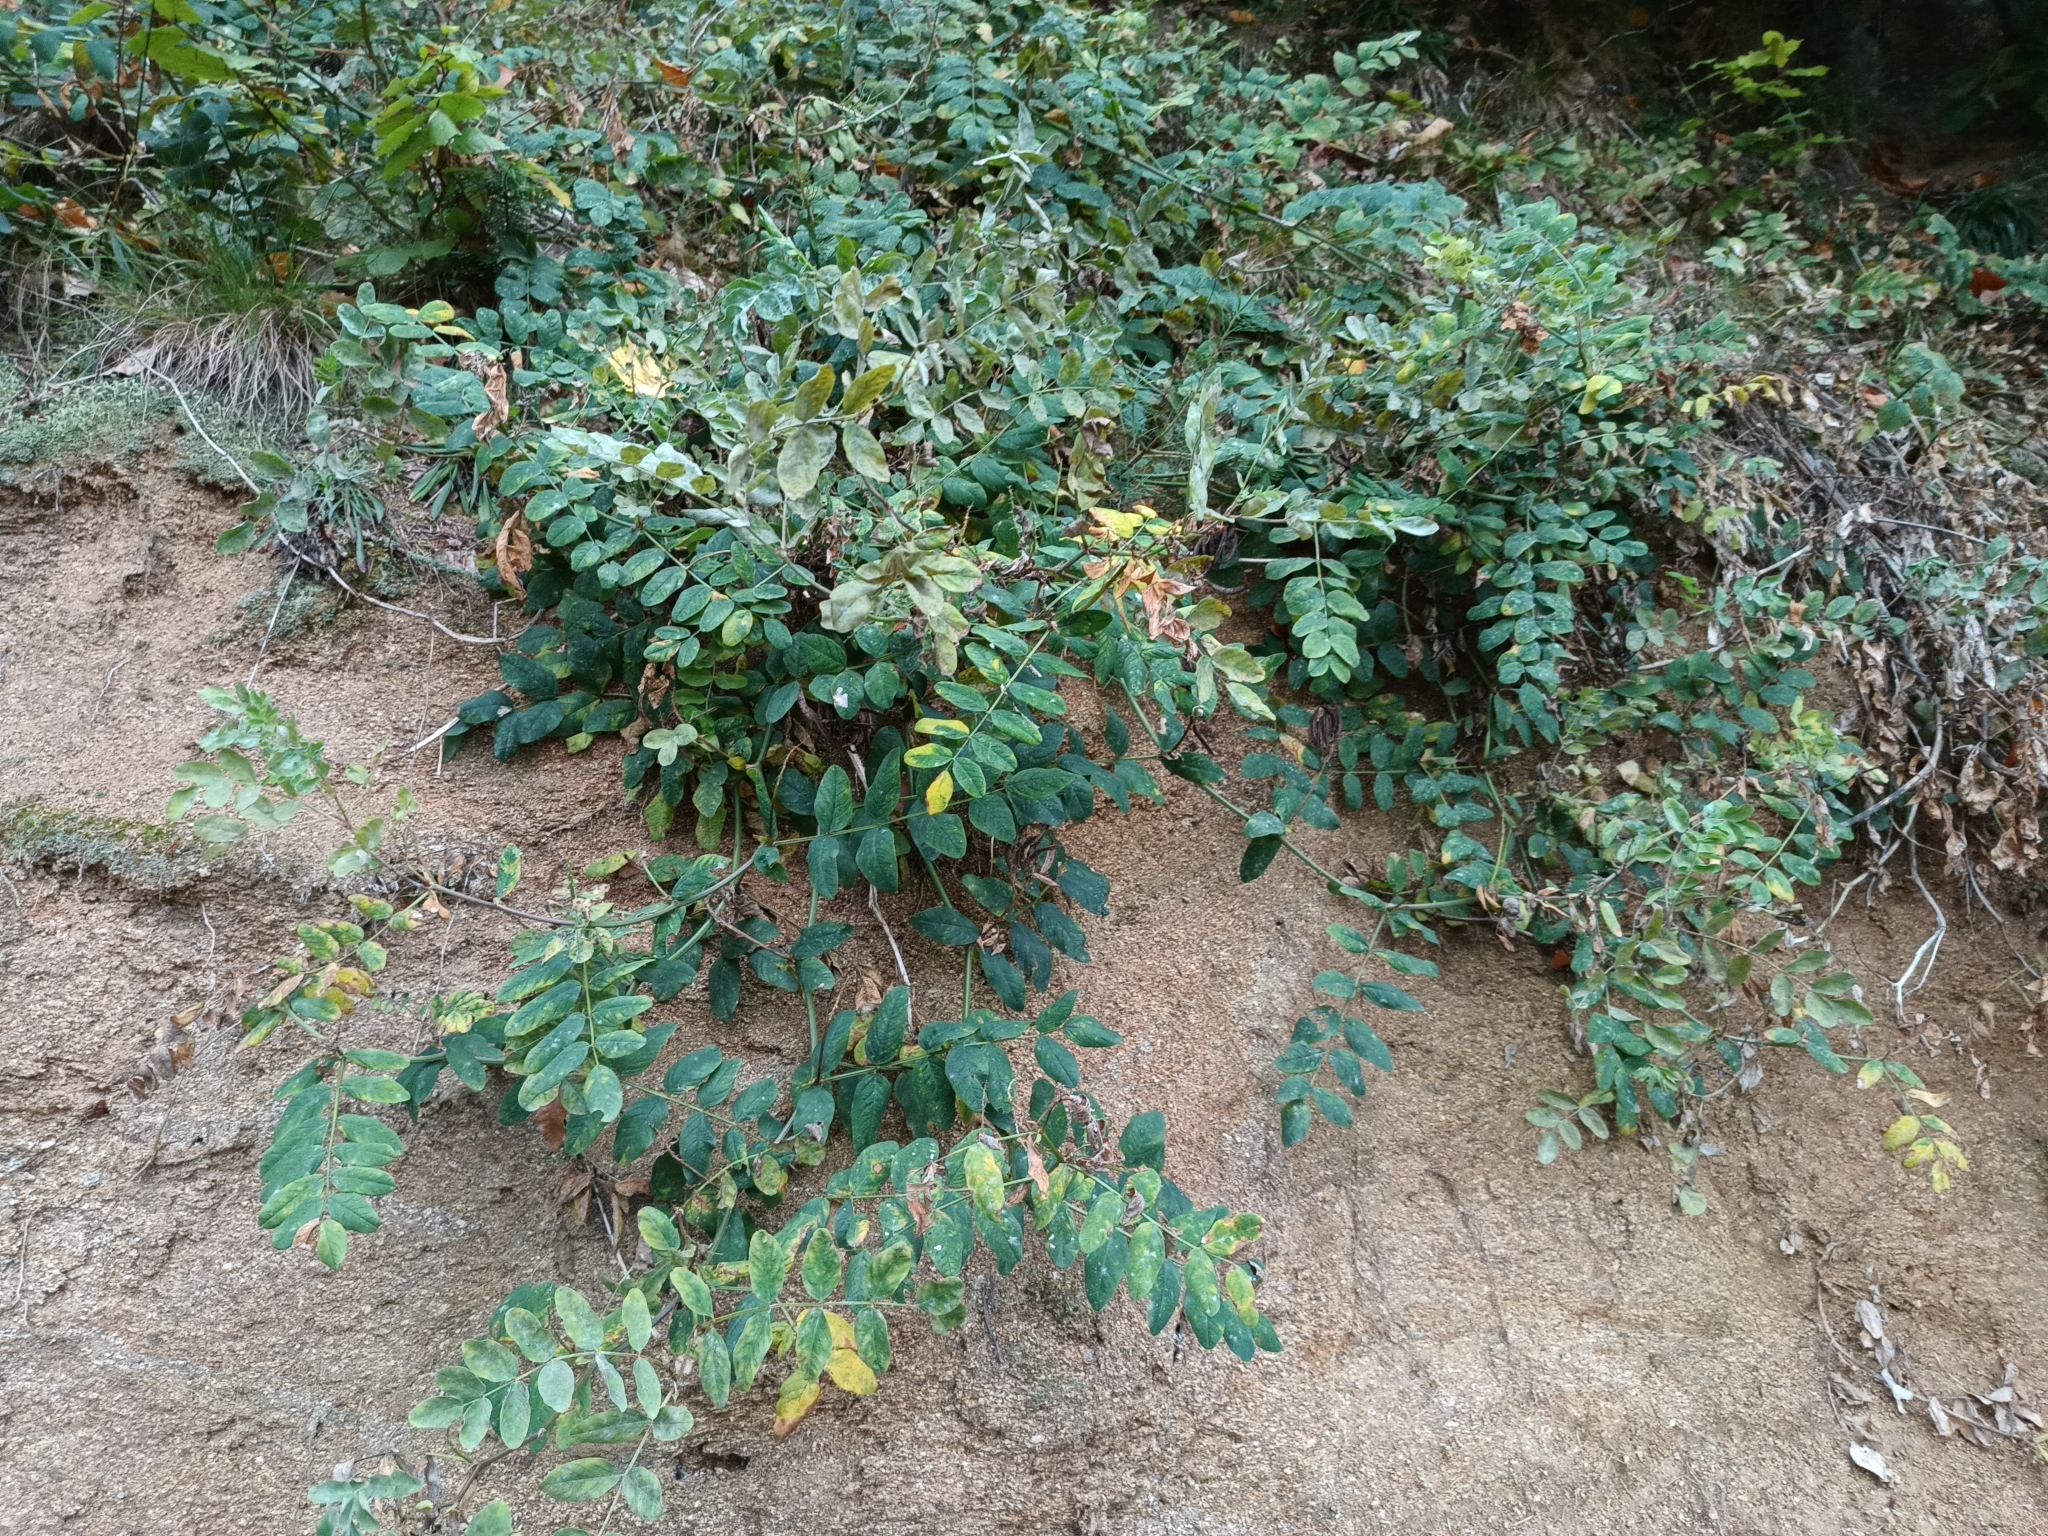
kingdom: Plantae
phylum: Tracheophyta
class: Magnoliopsida
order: Fabales
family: Fabaceae
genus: Astragalus
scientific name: Astragalus glycyphyllos
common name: Wild liquorice
